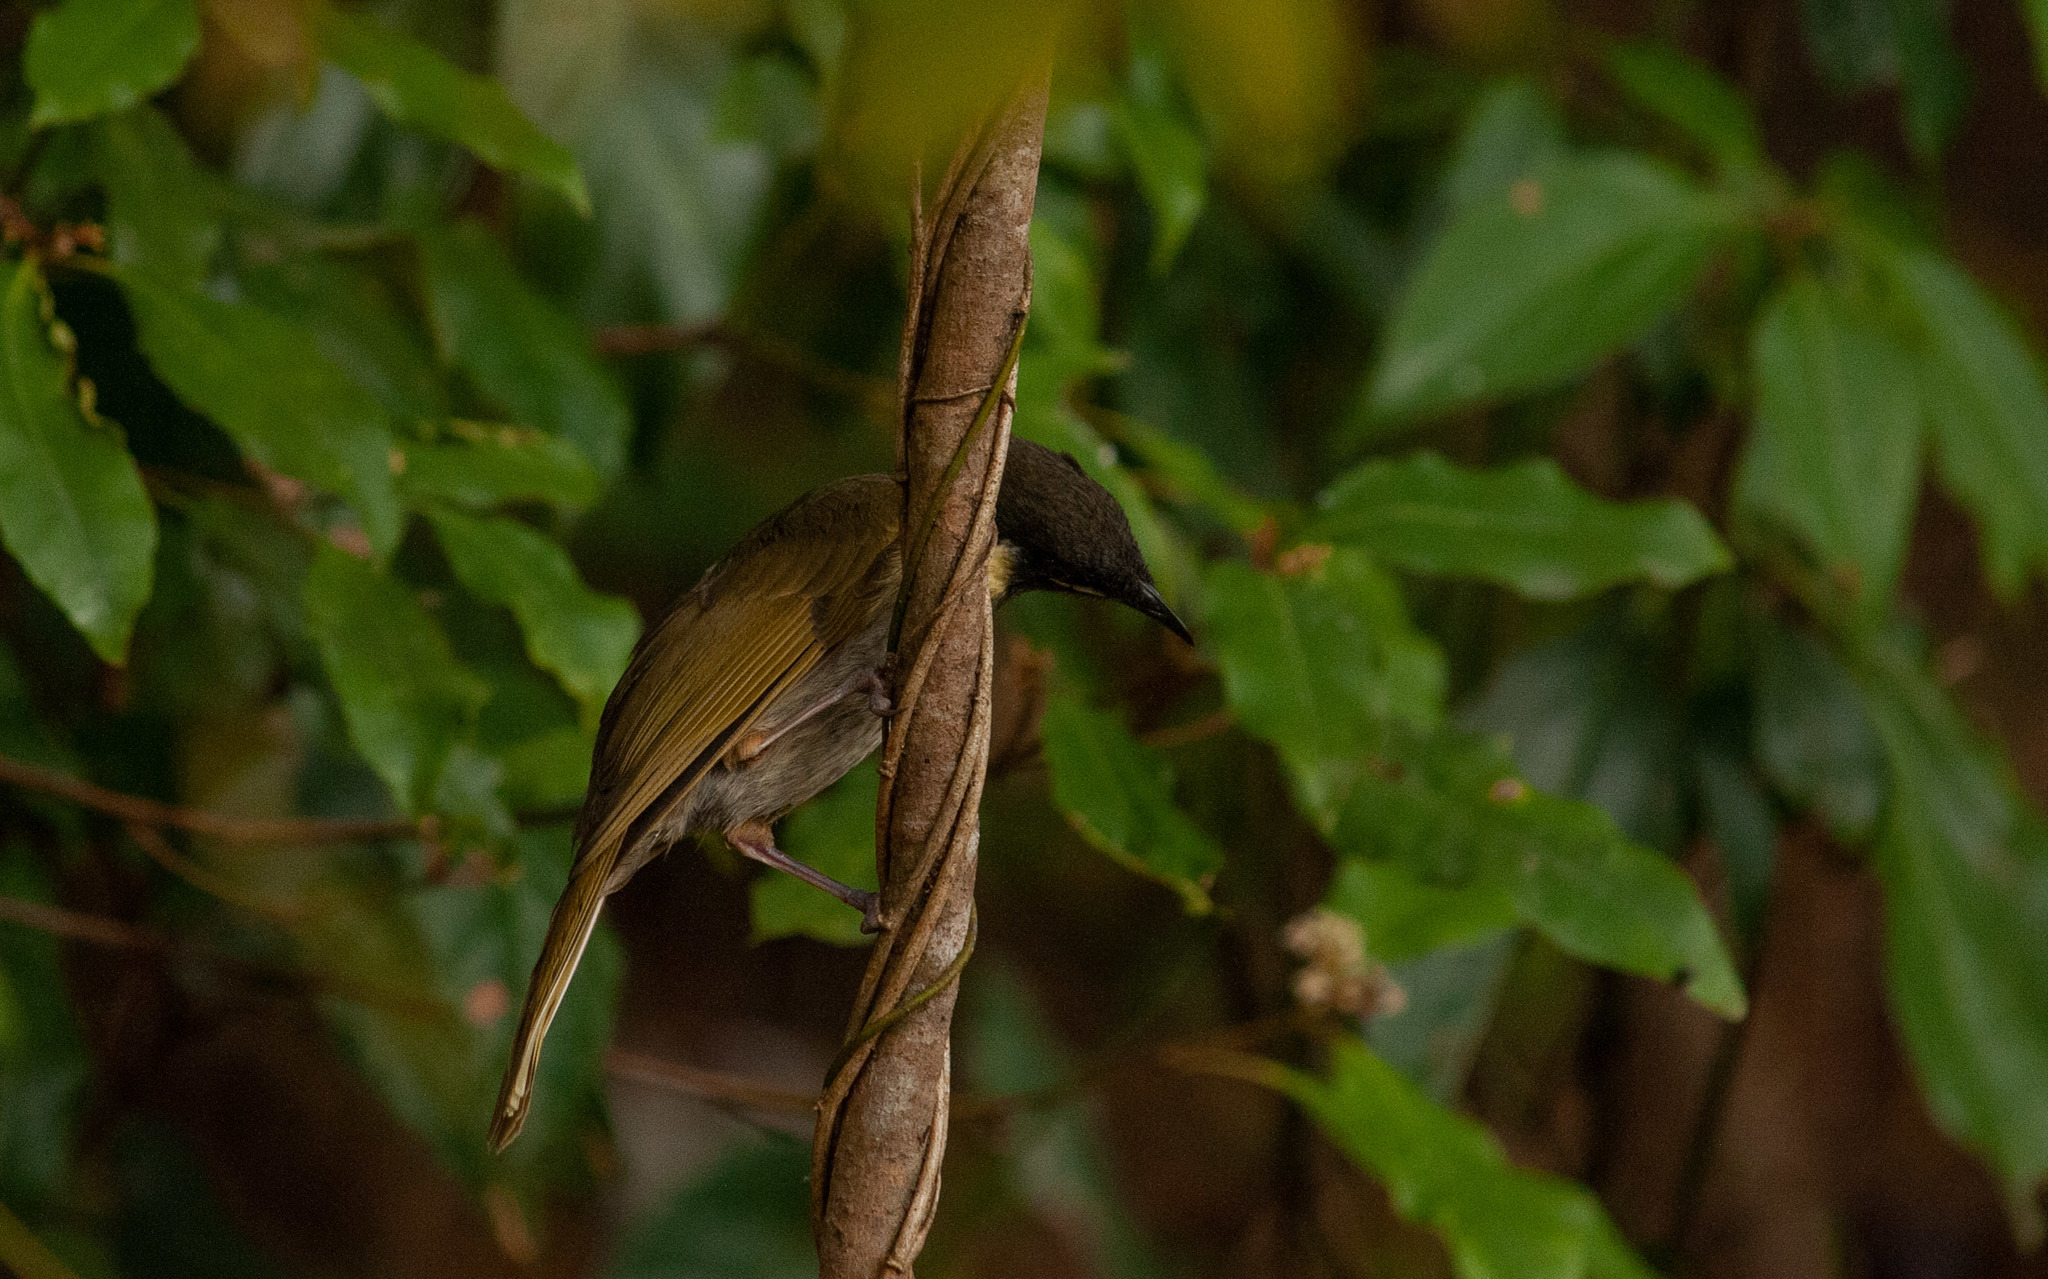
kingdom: Animalia
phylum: Chordata
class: Aves
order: Passeriformes
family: Meliphagidae
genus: Meliphaga
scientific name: Meliphaga lewinii
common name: Lewin's honeyeater
